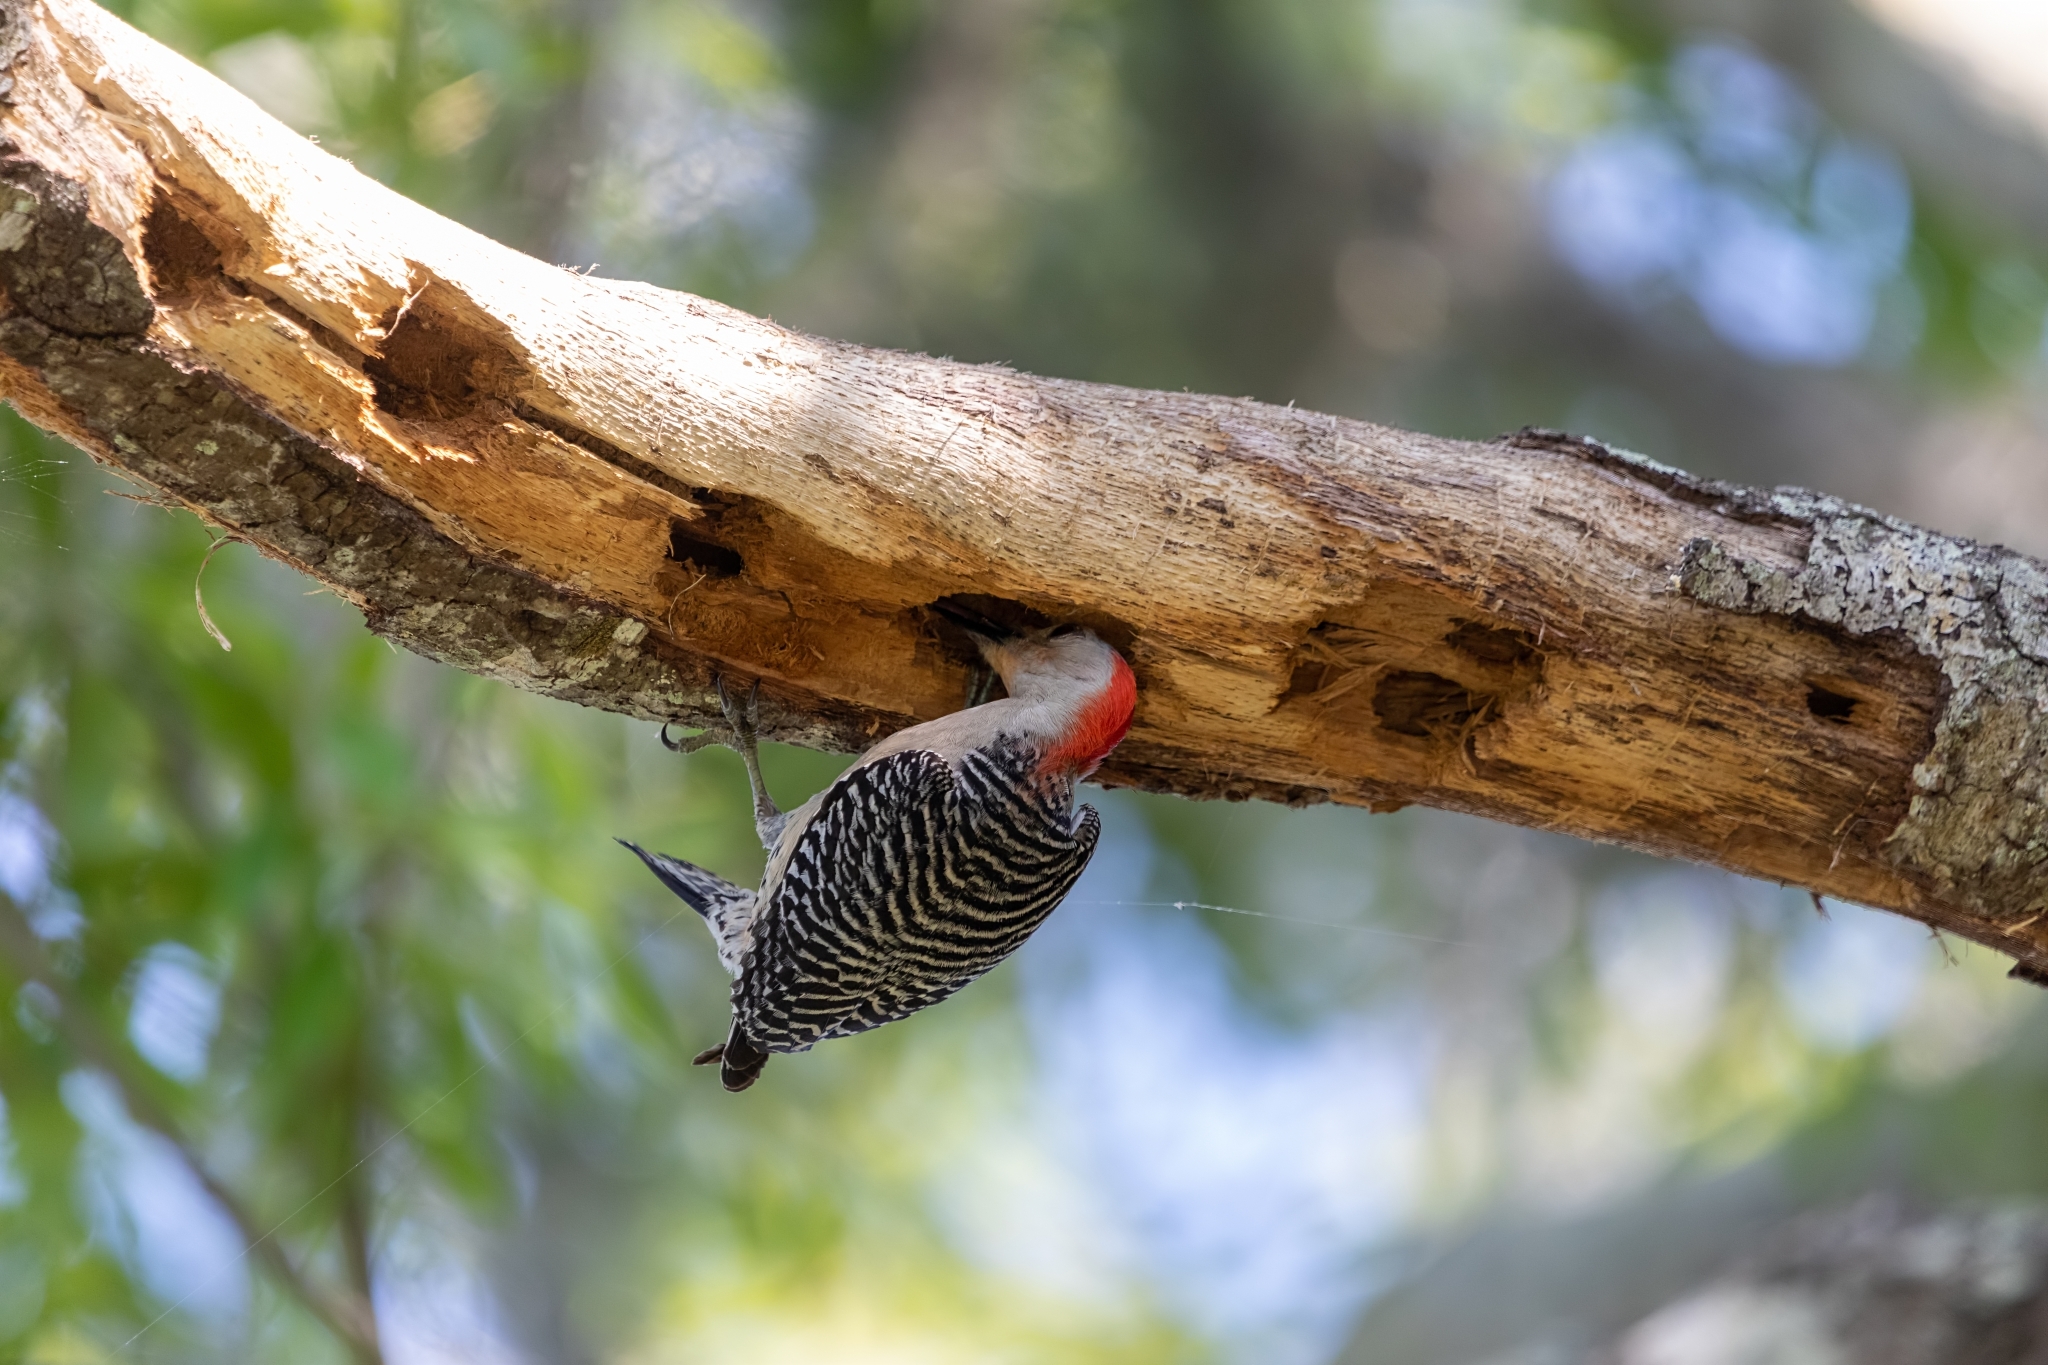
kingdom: Animalia
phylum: Chordata
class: Aves
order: Piciformes
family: Picidae
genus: Melanerpes
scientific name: Melanerpes carolinus
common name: Red-bellied woodpecker
